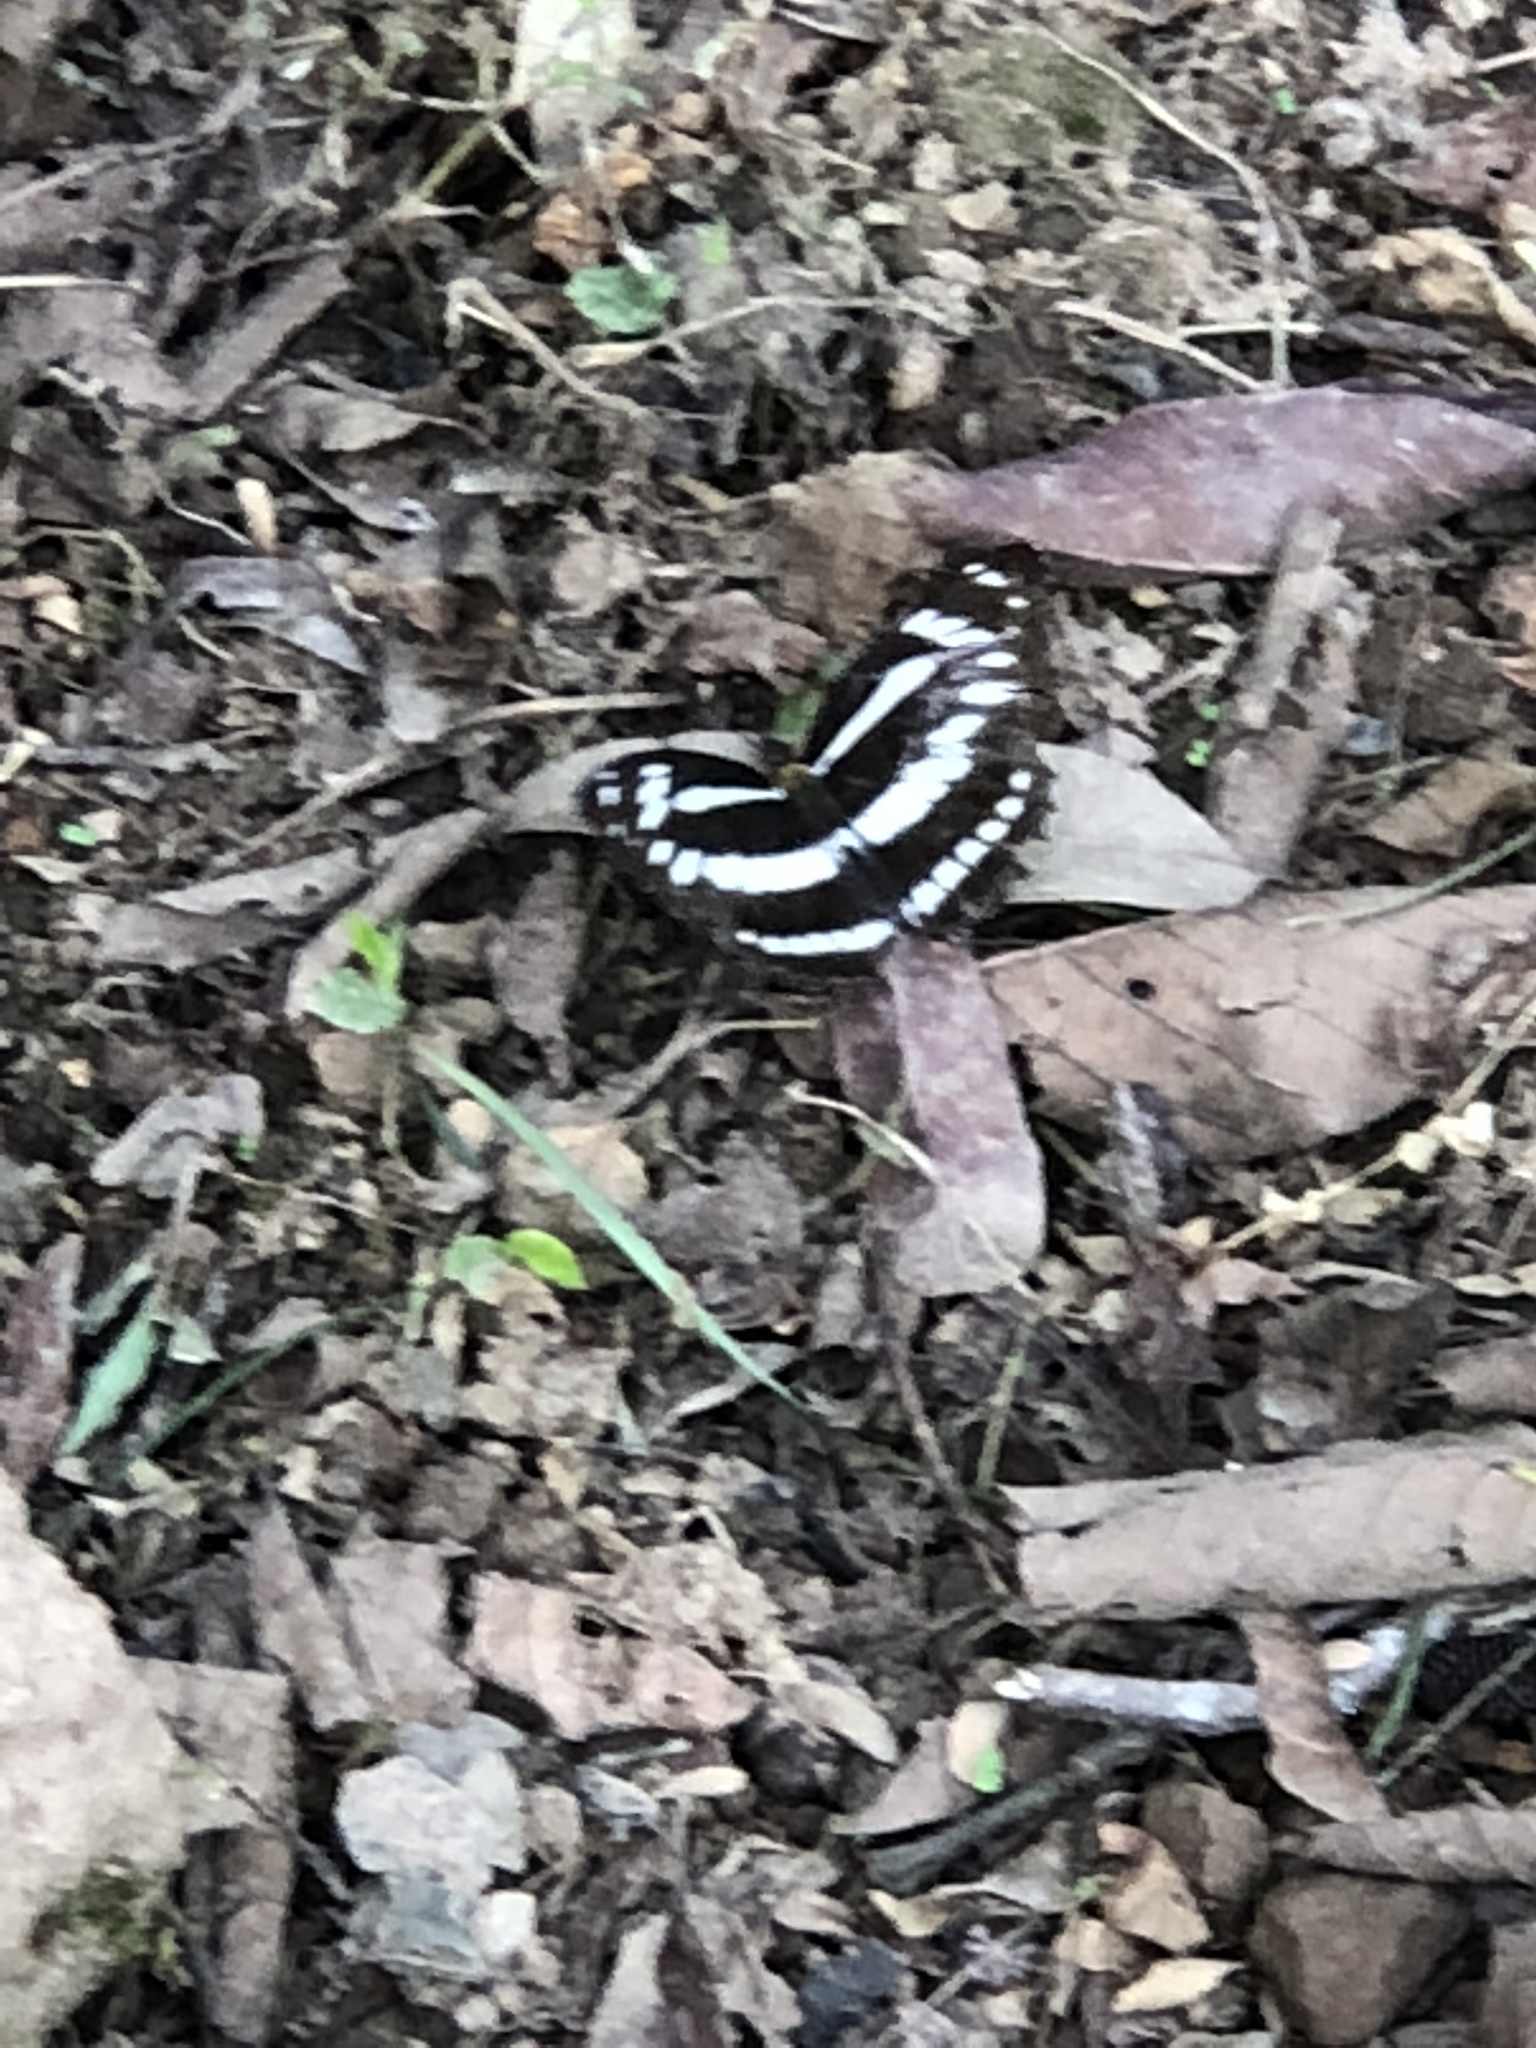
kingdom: Animalia
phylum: Arthropoda
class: Insecta
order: Lepidoptera
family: Nymphalidae
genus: Pantoporia
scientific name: Pantoporia jina
